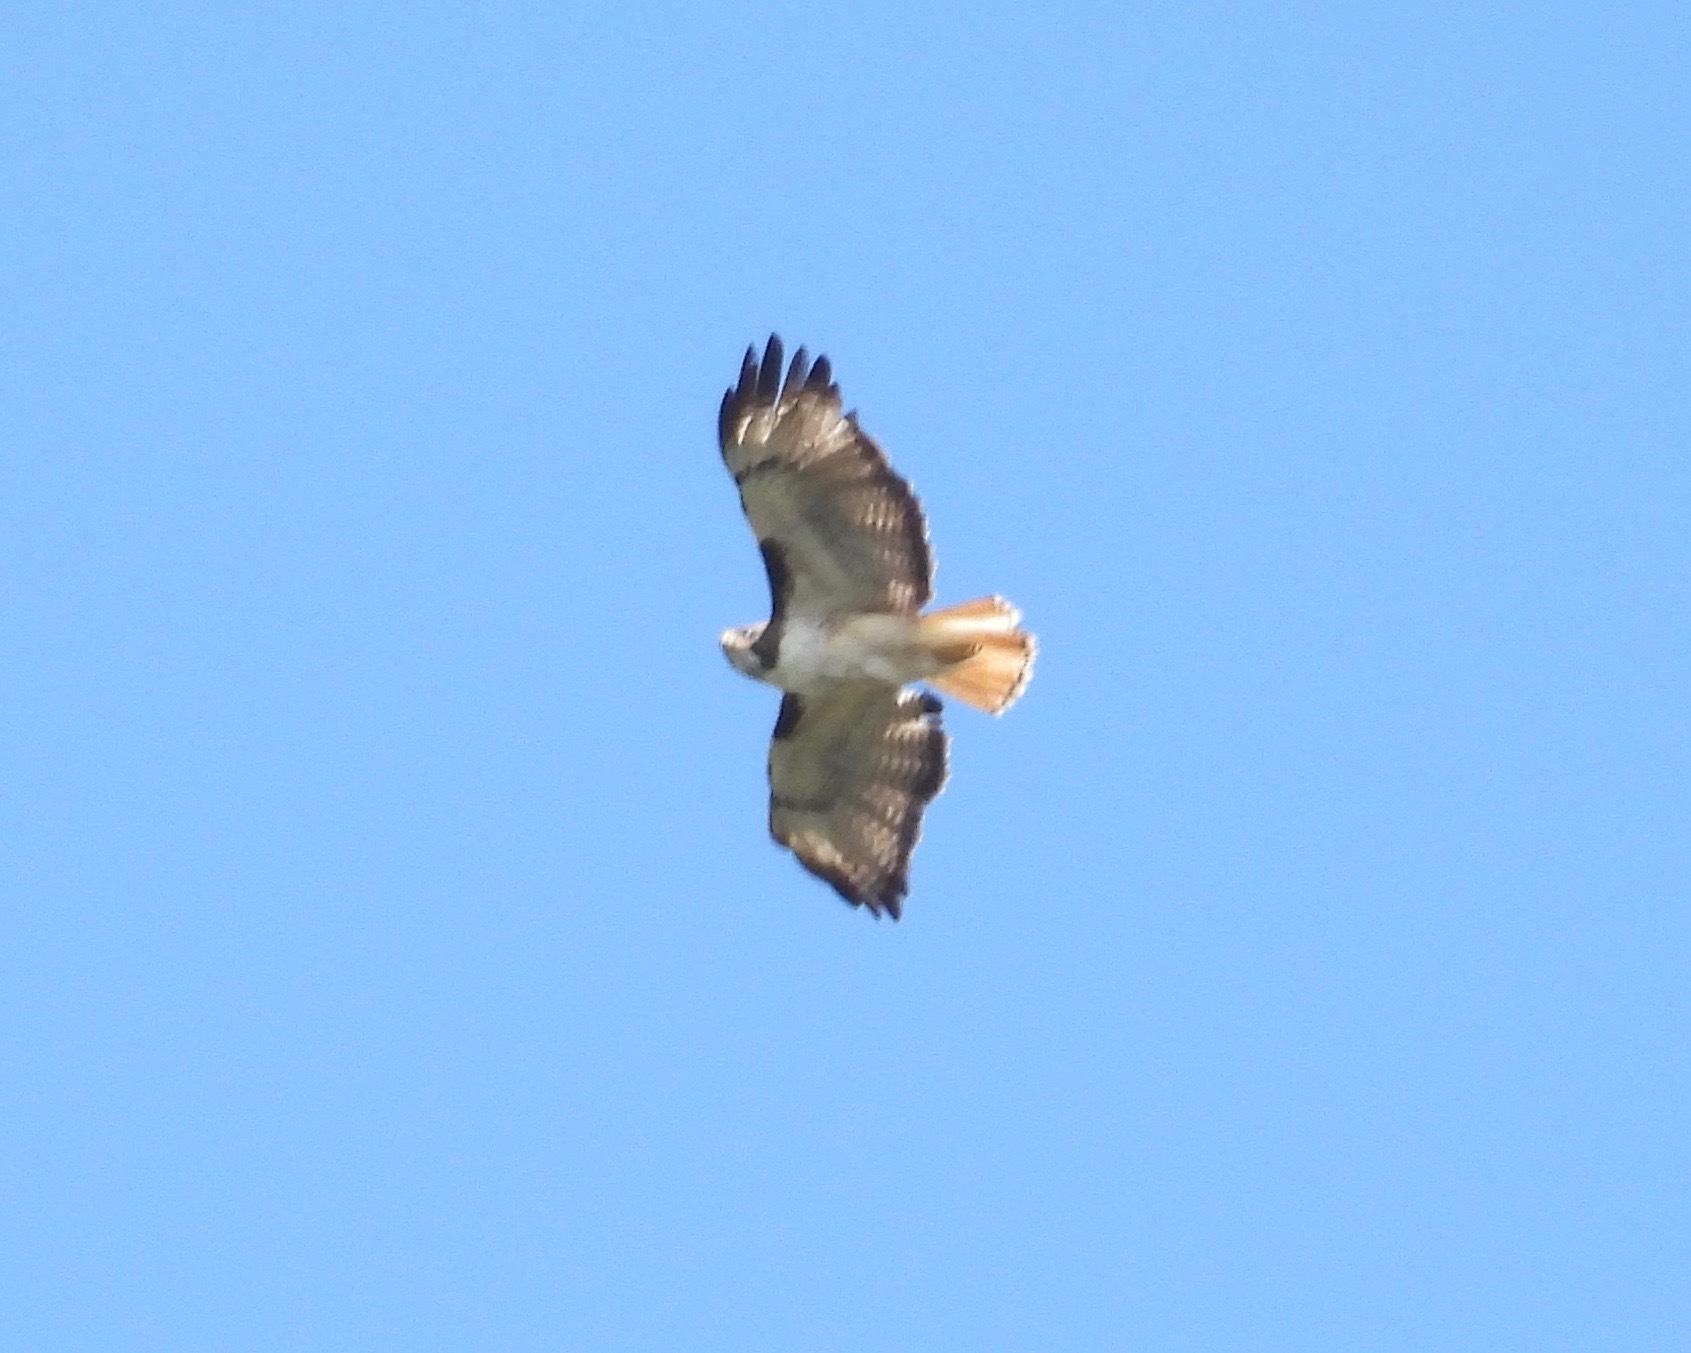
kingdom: Animalia
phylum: Chordata
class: Aves
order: Accipitriformes
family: Accipitridae
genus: Buteo
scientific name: Buteo jamaicensis
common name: Red-tailed hawk
